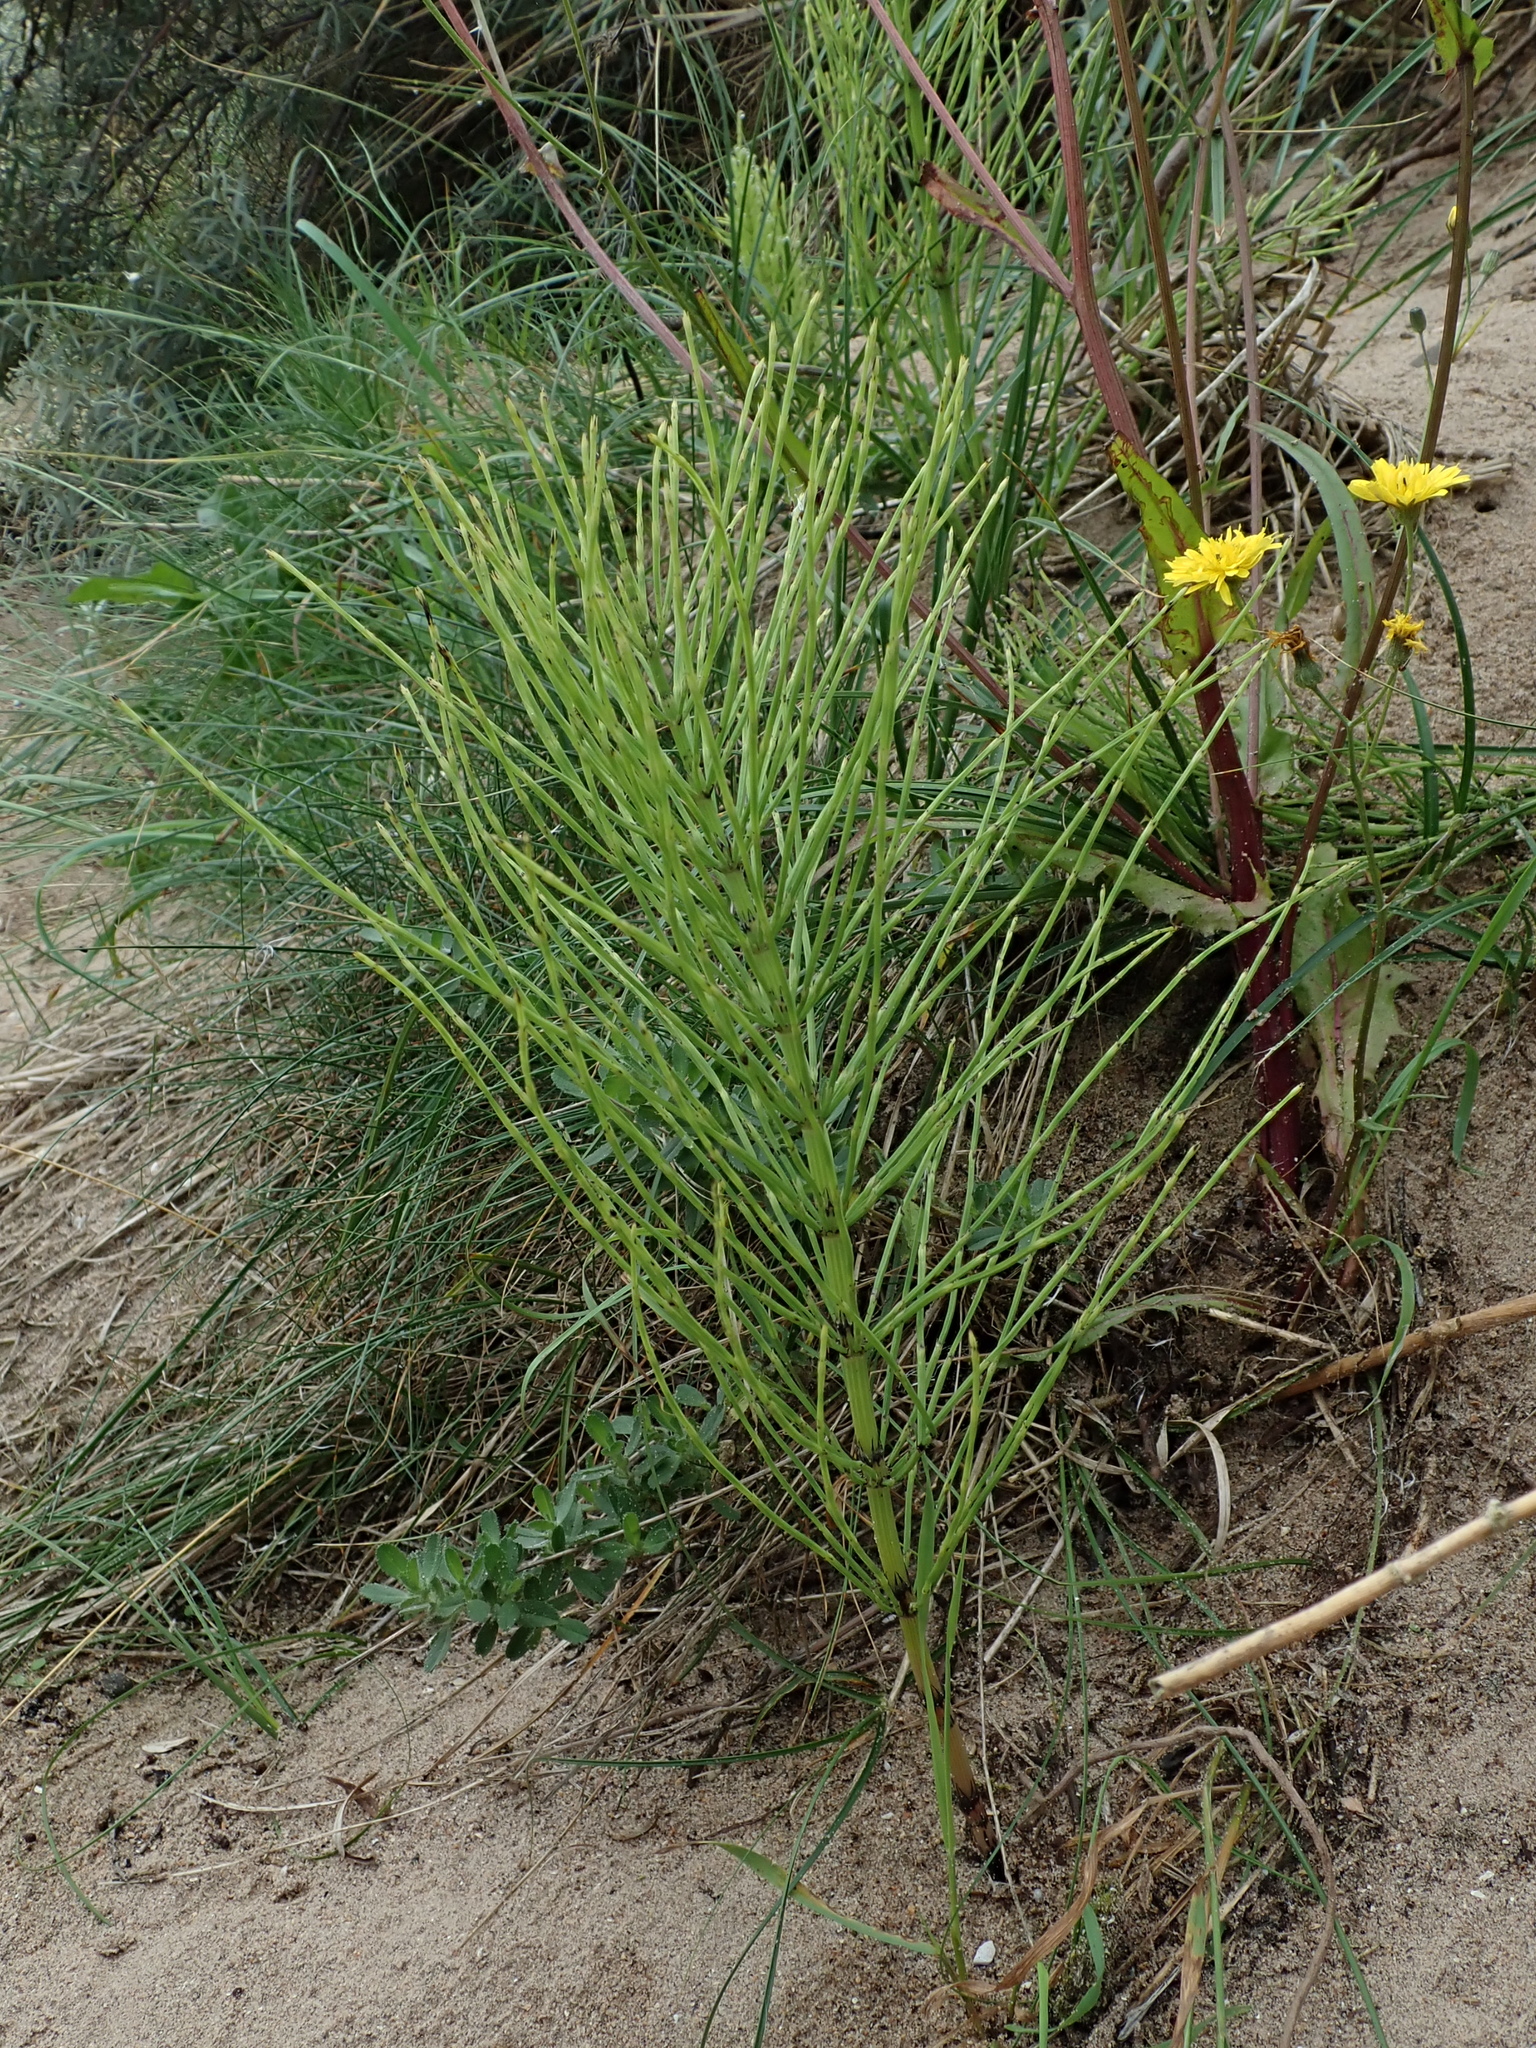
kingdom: Plantae
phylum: Tracheophyta
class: Polypodiopsida
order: Equisetales
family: Equisetaceae
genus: Equisetum
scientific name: Equisetum arvense
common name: Field horsetail
